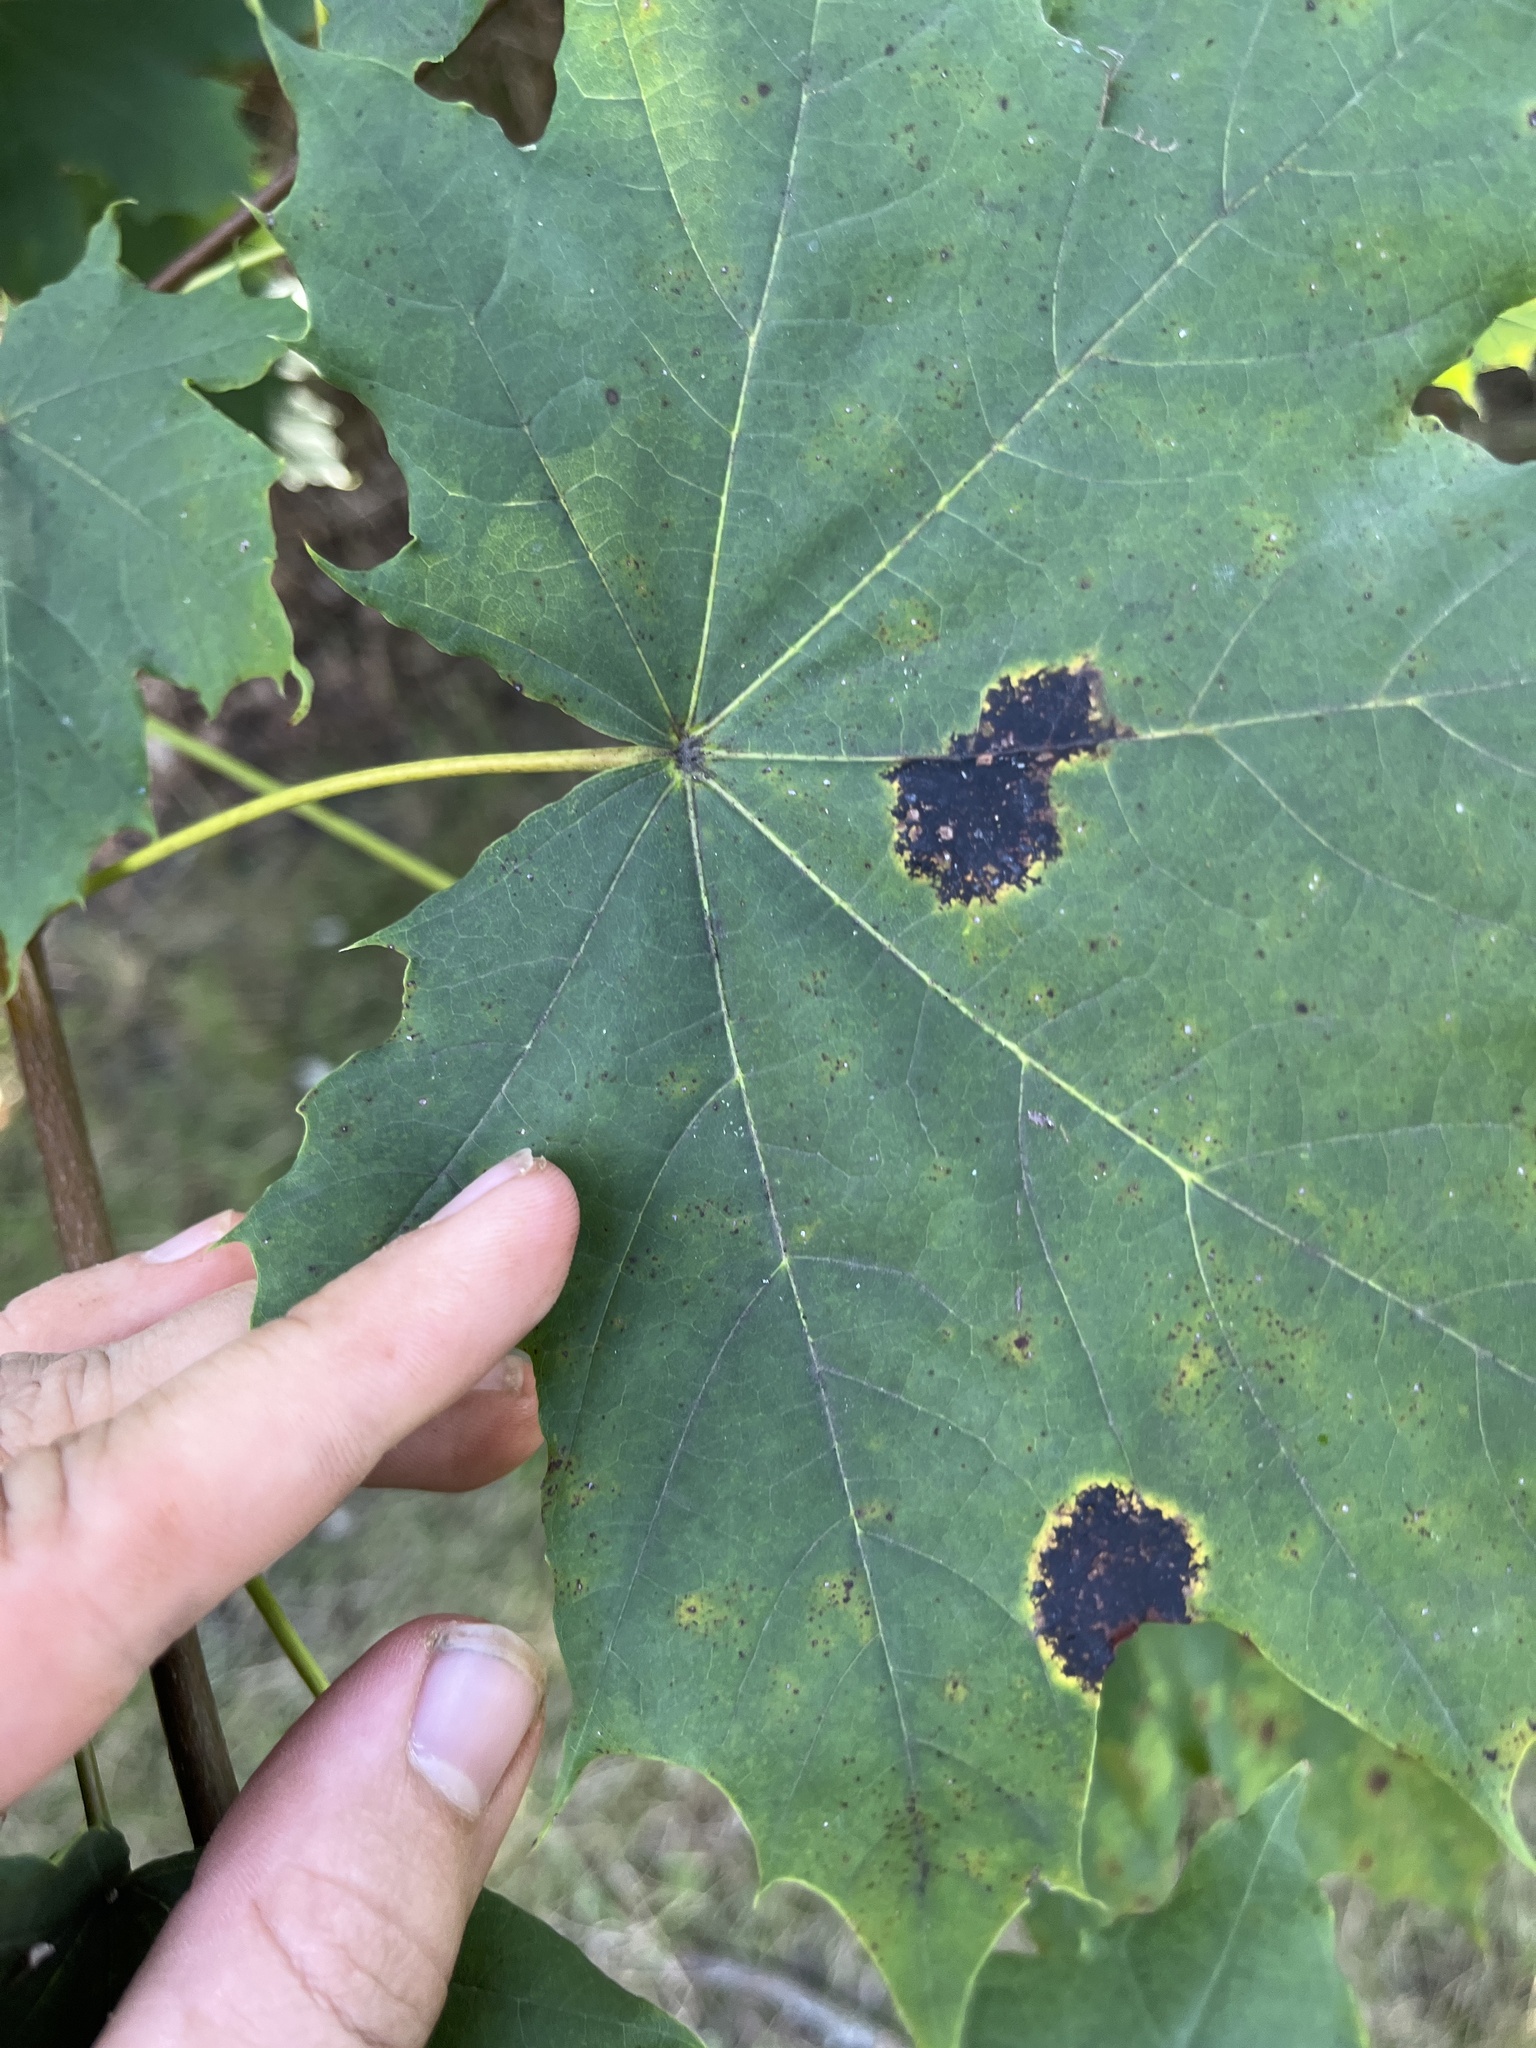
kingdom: Fungi
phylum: Ascomycota
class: Leotiomycetes
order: Rhytismatales
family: Rhytismataceae
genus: Rhytisma
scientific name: Rhytisma acerinum
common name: European tar spot
